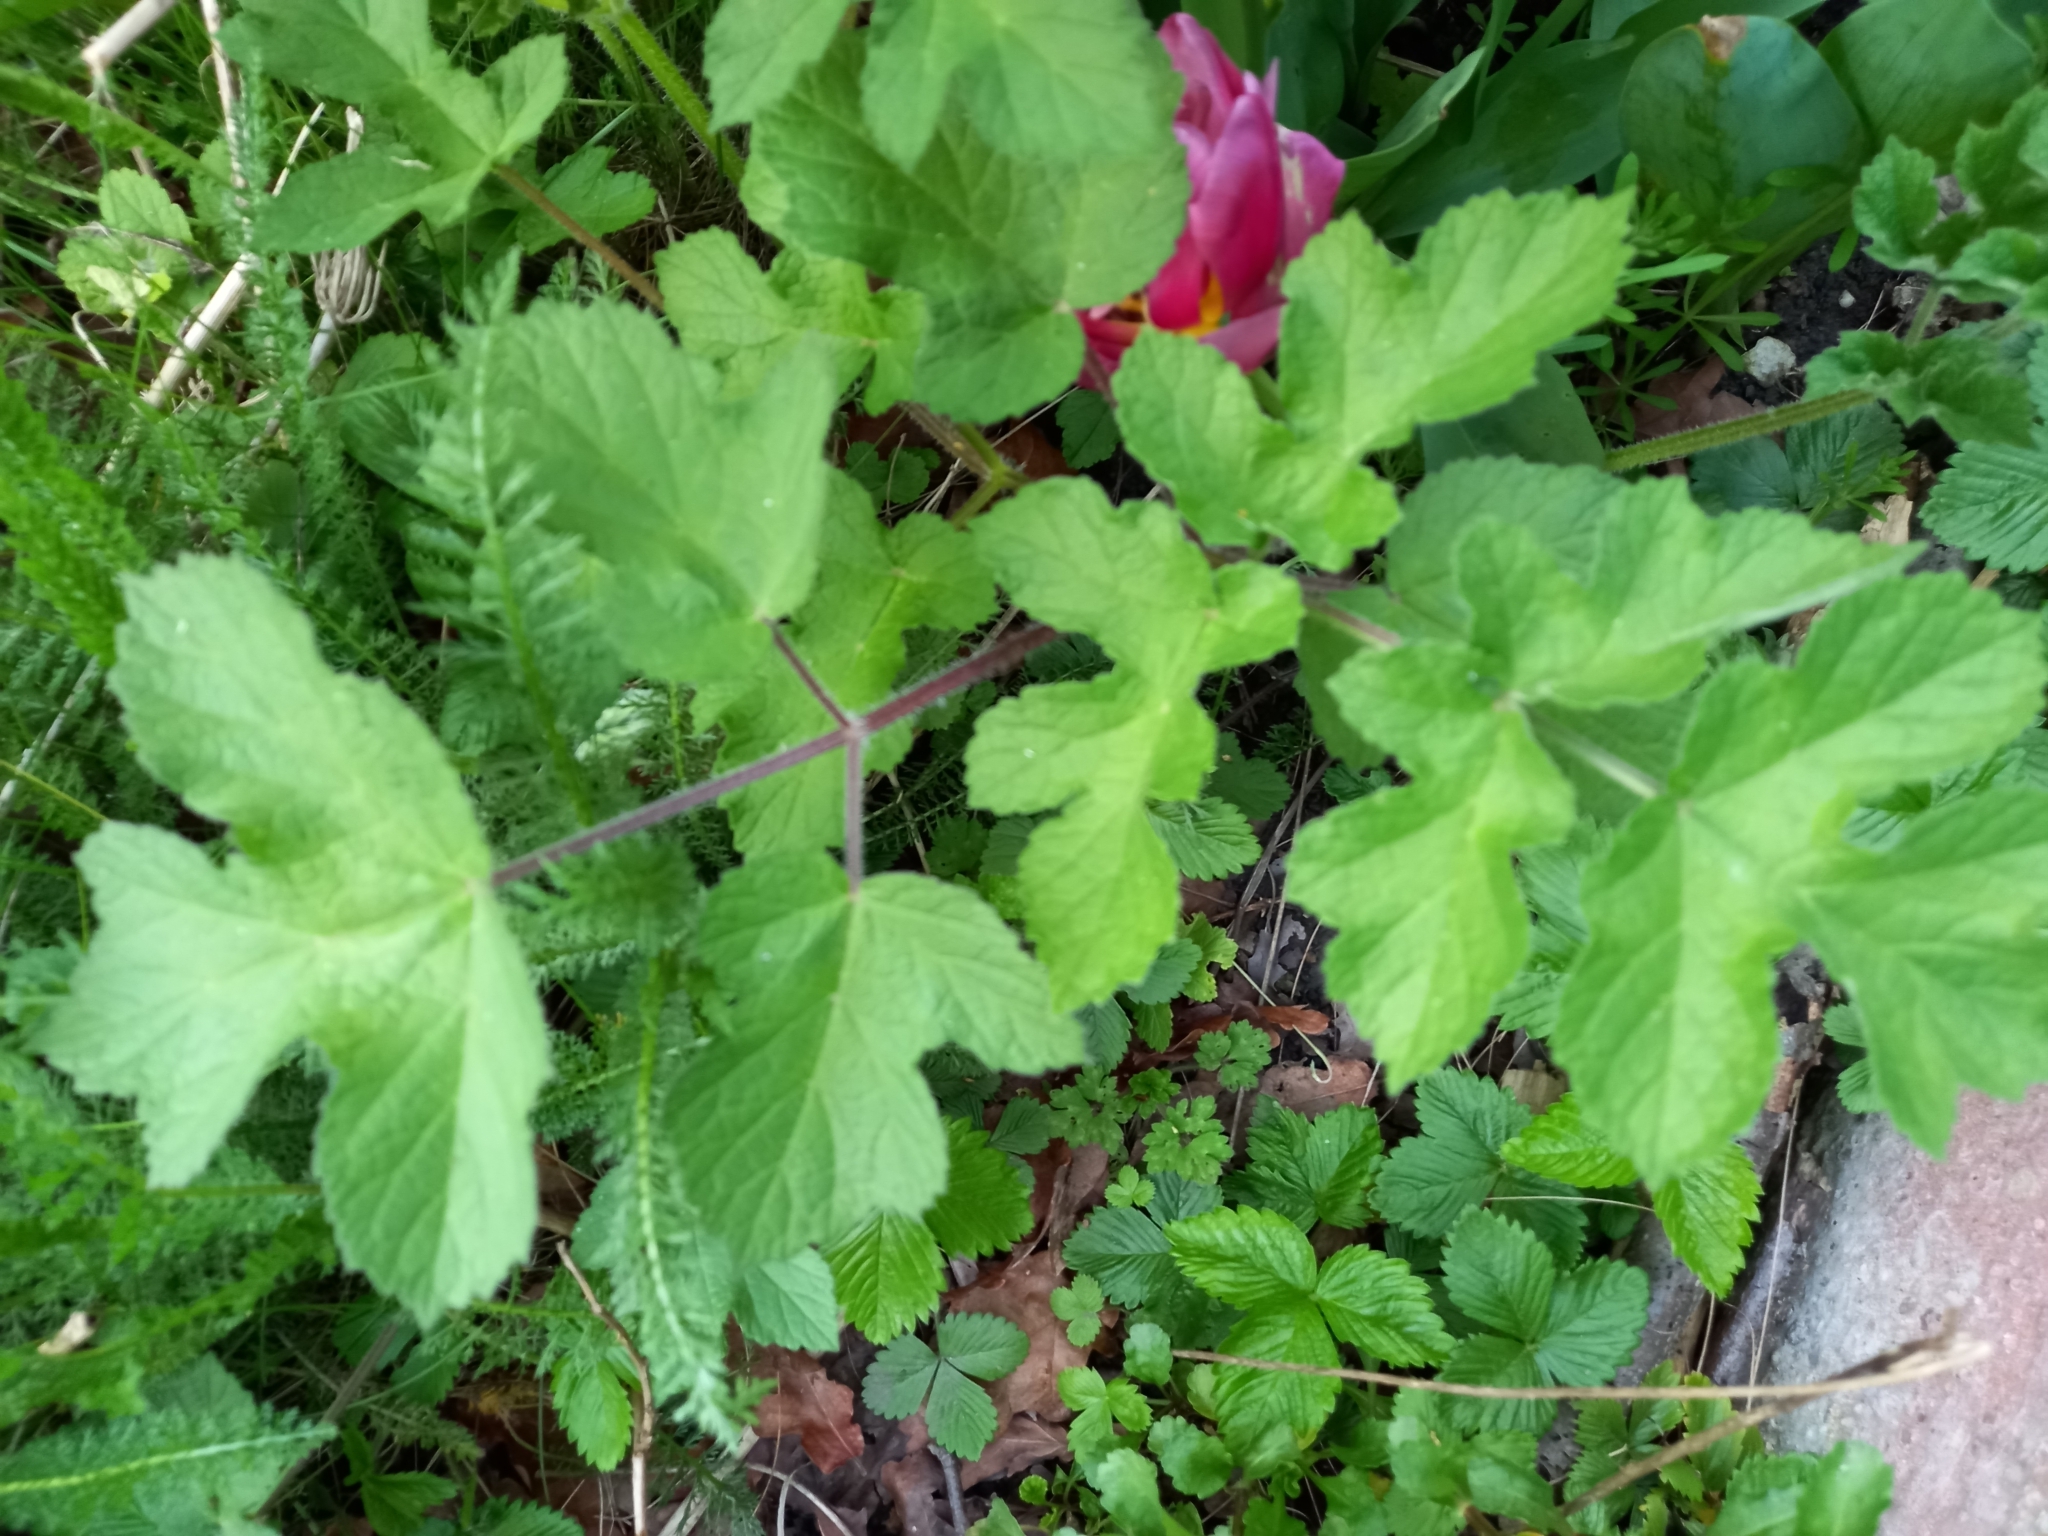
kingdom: Plantae
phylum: Tracheophyta
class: Magnoliopsida
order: Apiales
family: Apiaceae
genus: Heracleum
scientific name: Heracleum sphondylium
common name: Hogweed
